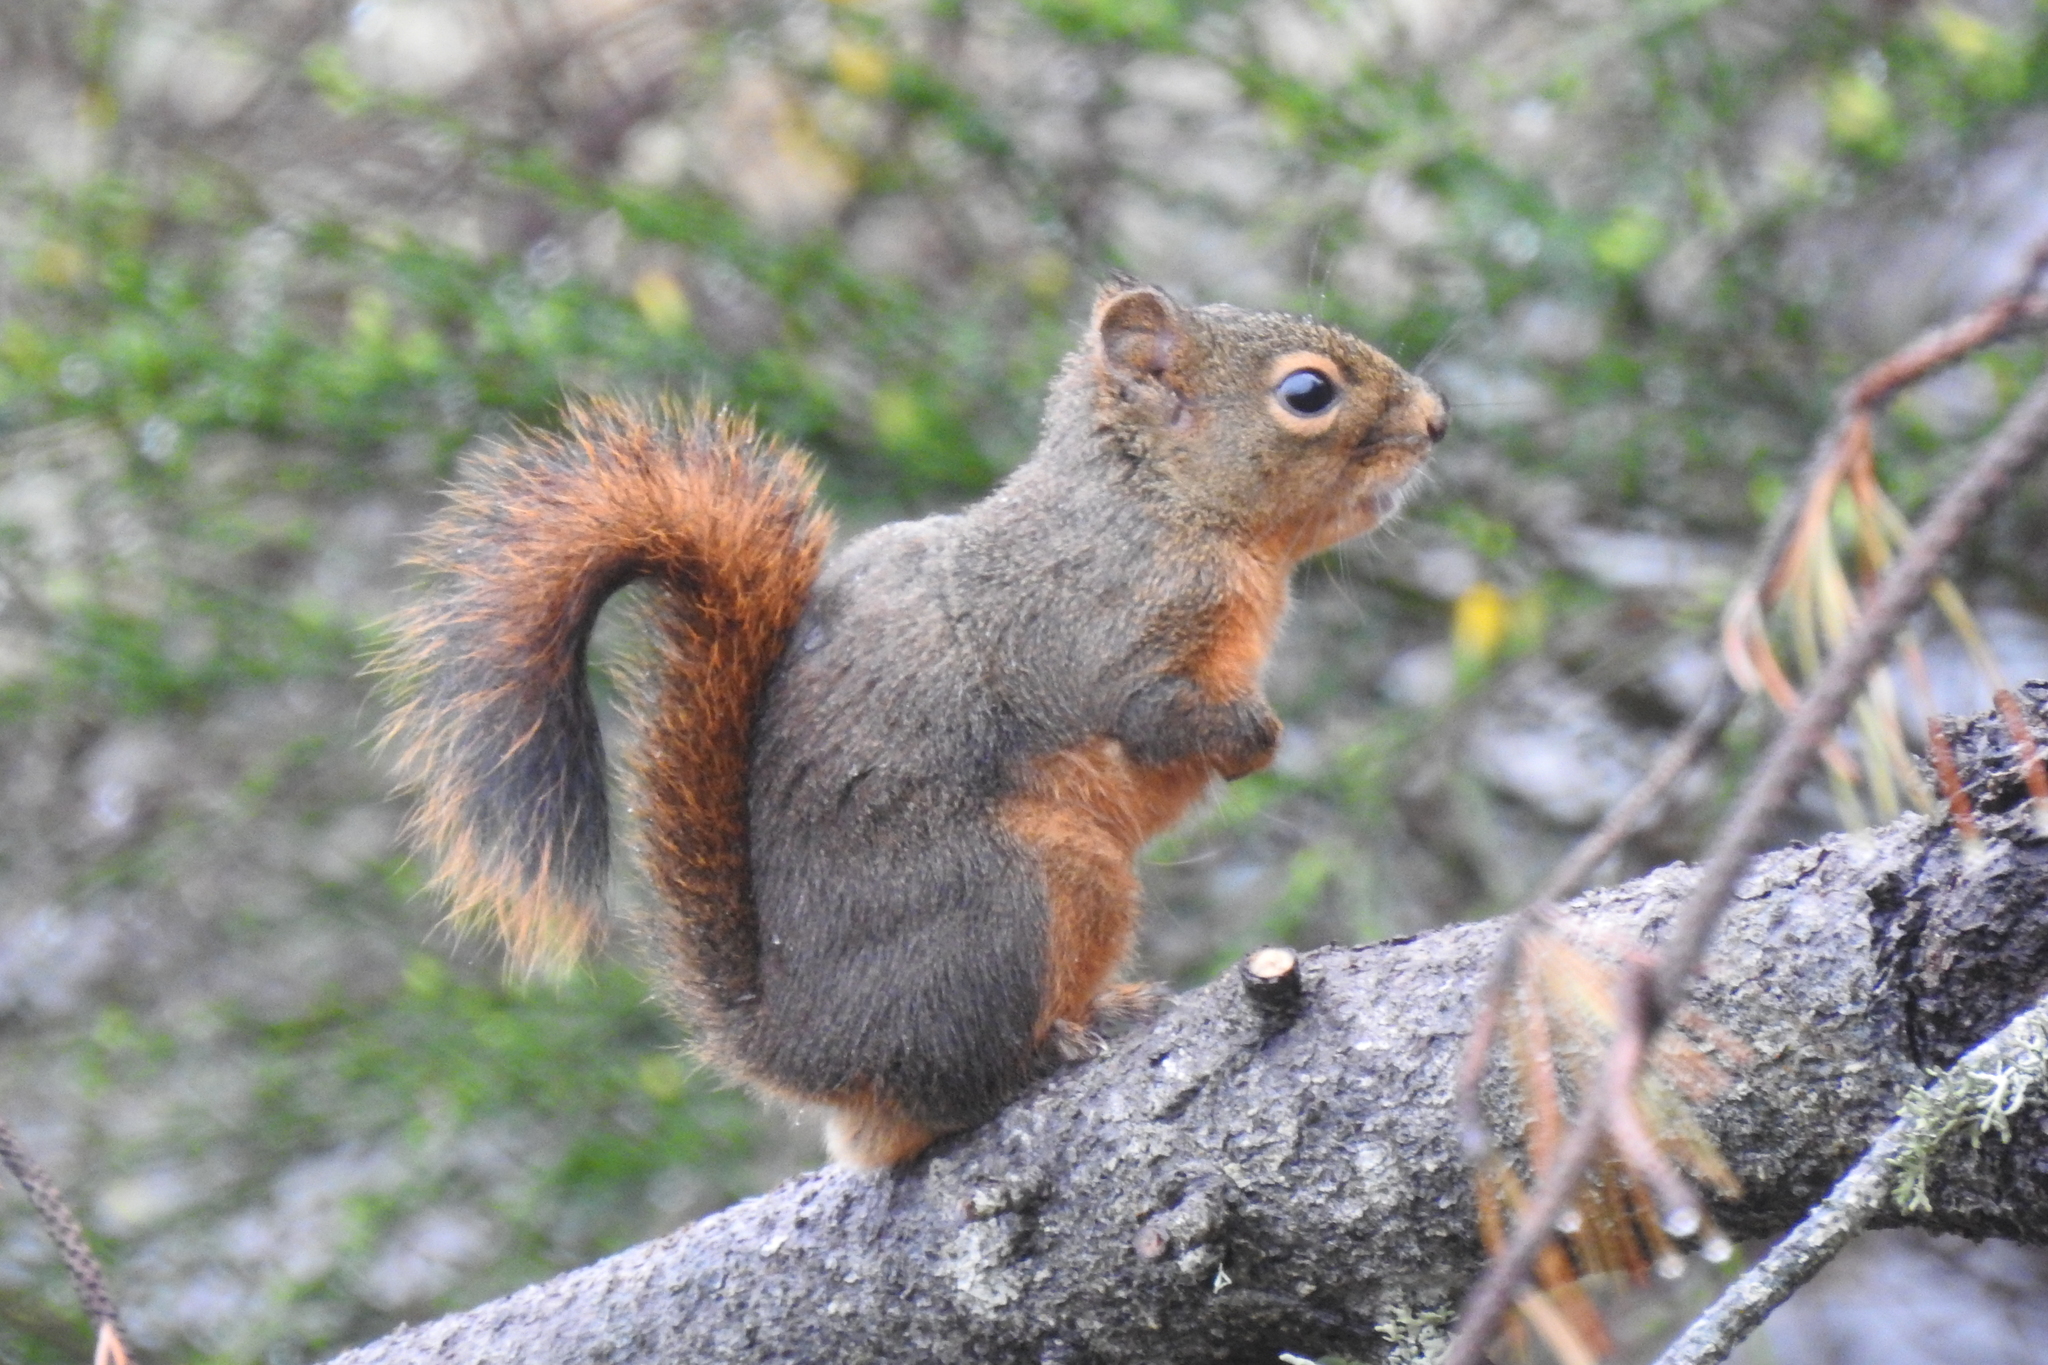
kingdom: Animalia
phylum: Chordata
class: Mammalia
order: Rodentia
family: Sciuridae
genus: Tamiasciurus
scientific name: Tamiasciurus douglasii
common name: Douglas's squirrel
